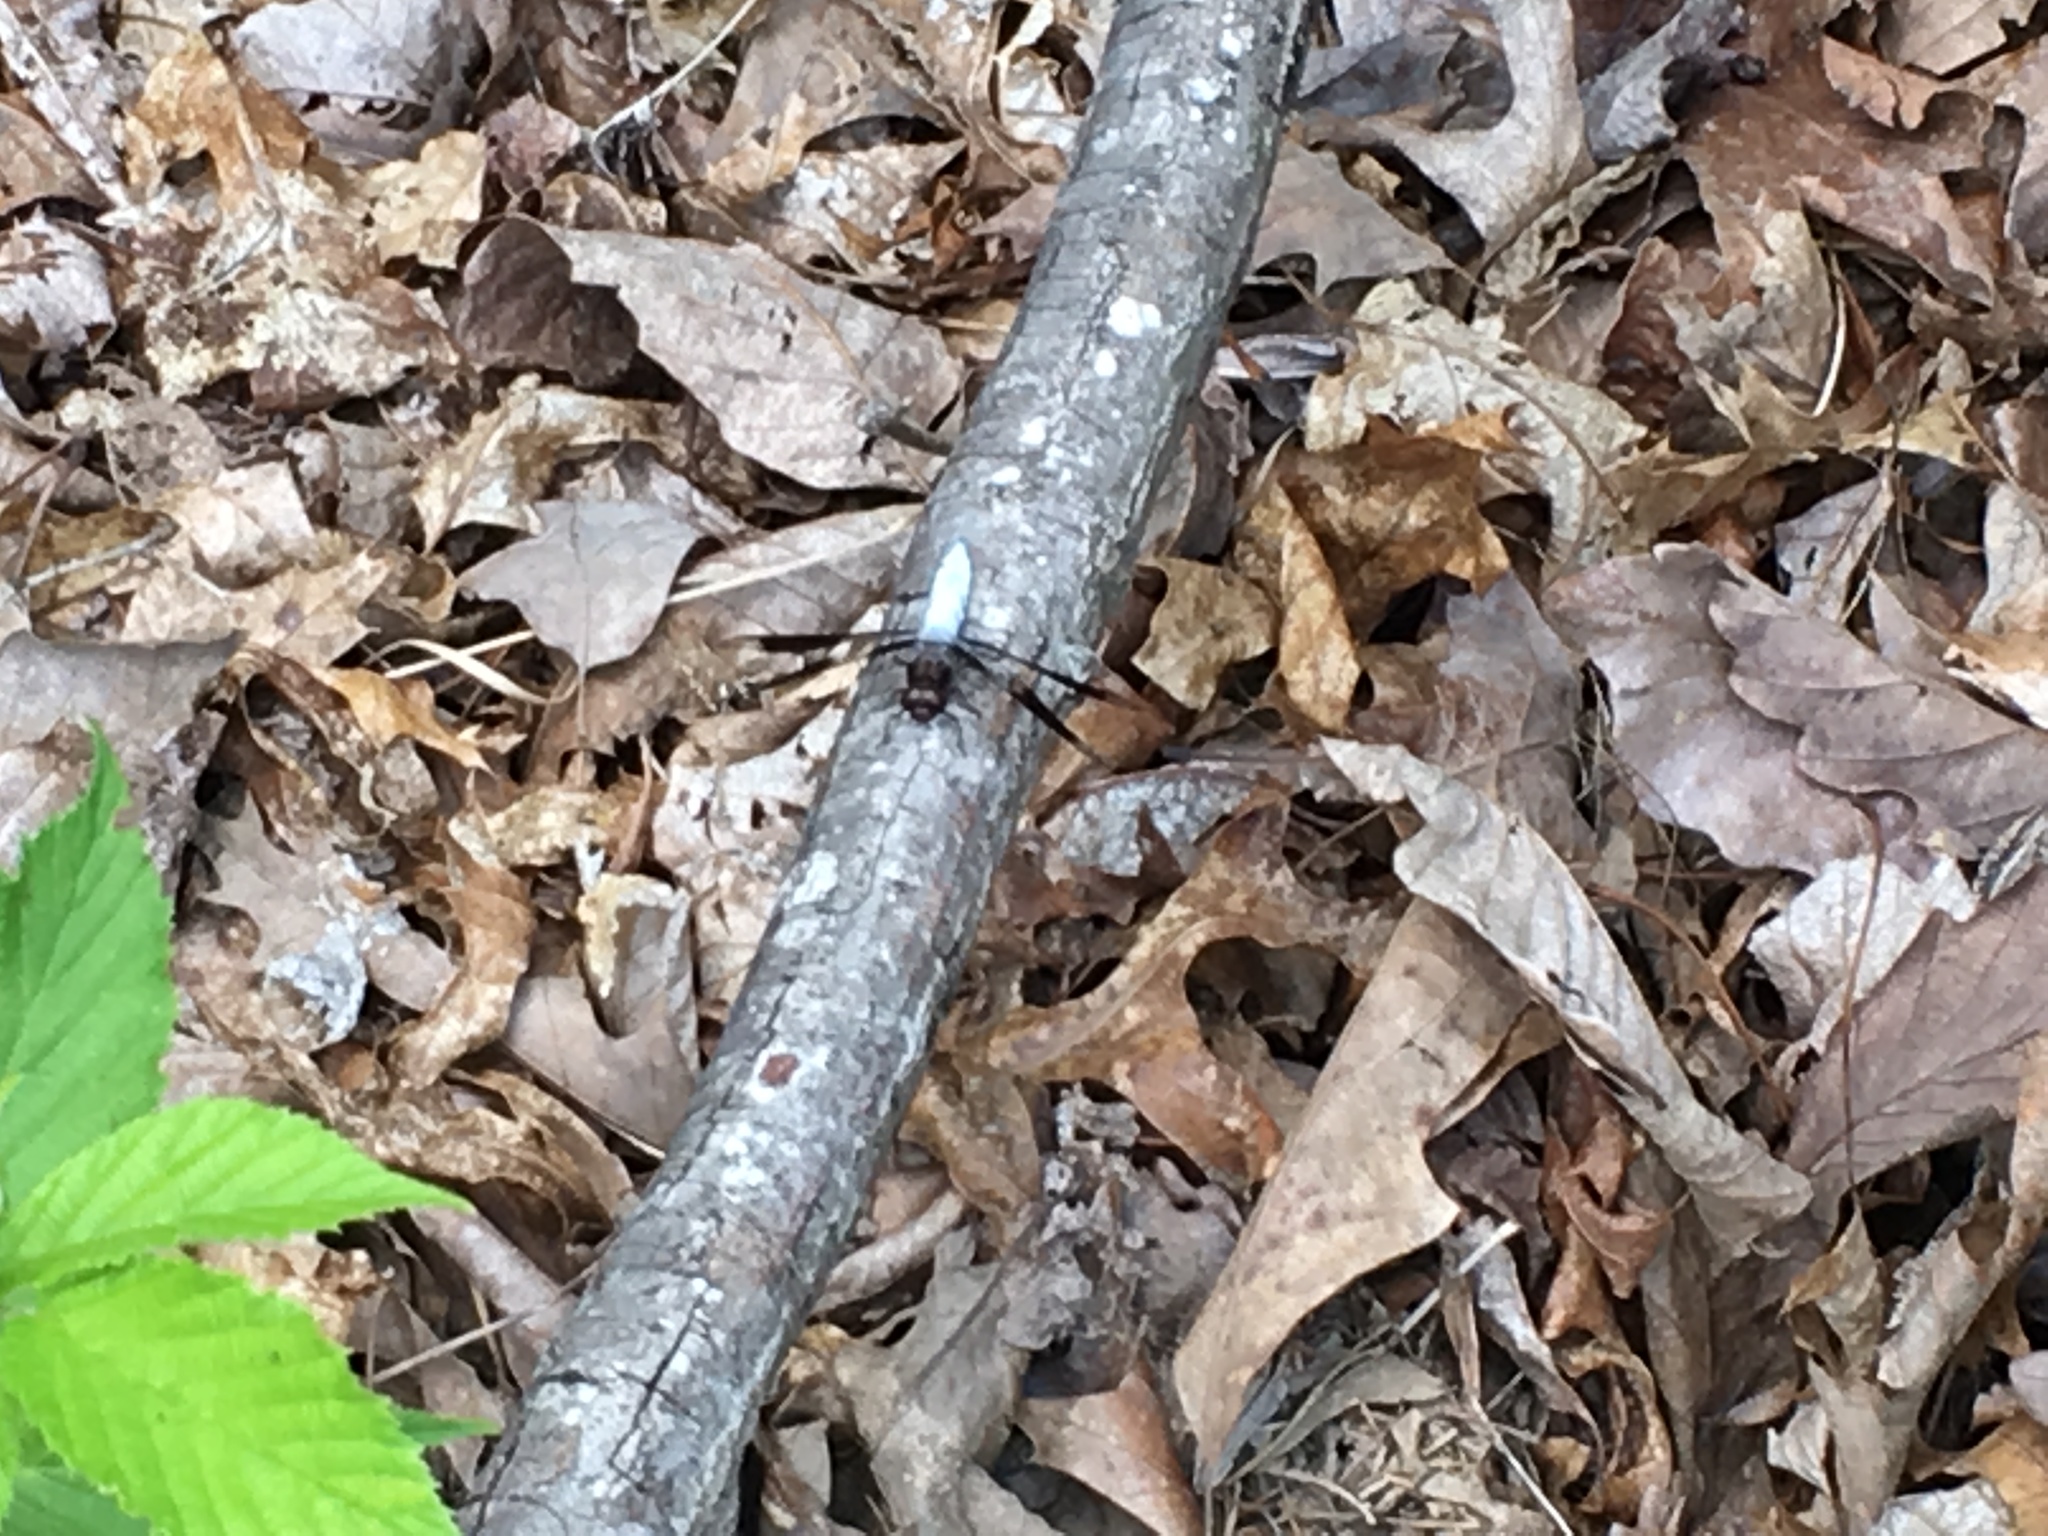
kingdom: Animalia
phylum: Arthropoda
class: Insecta
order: Odonata
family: Libellulidae
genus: Plathemis
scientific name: Plathemis lydia
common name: Common whitetail
